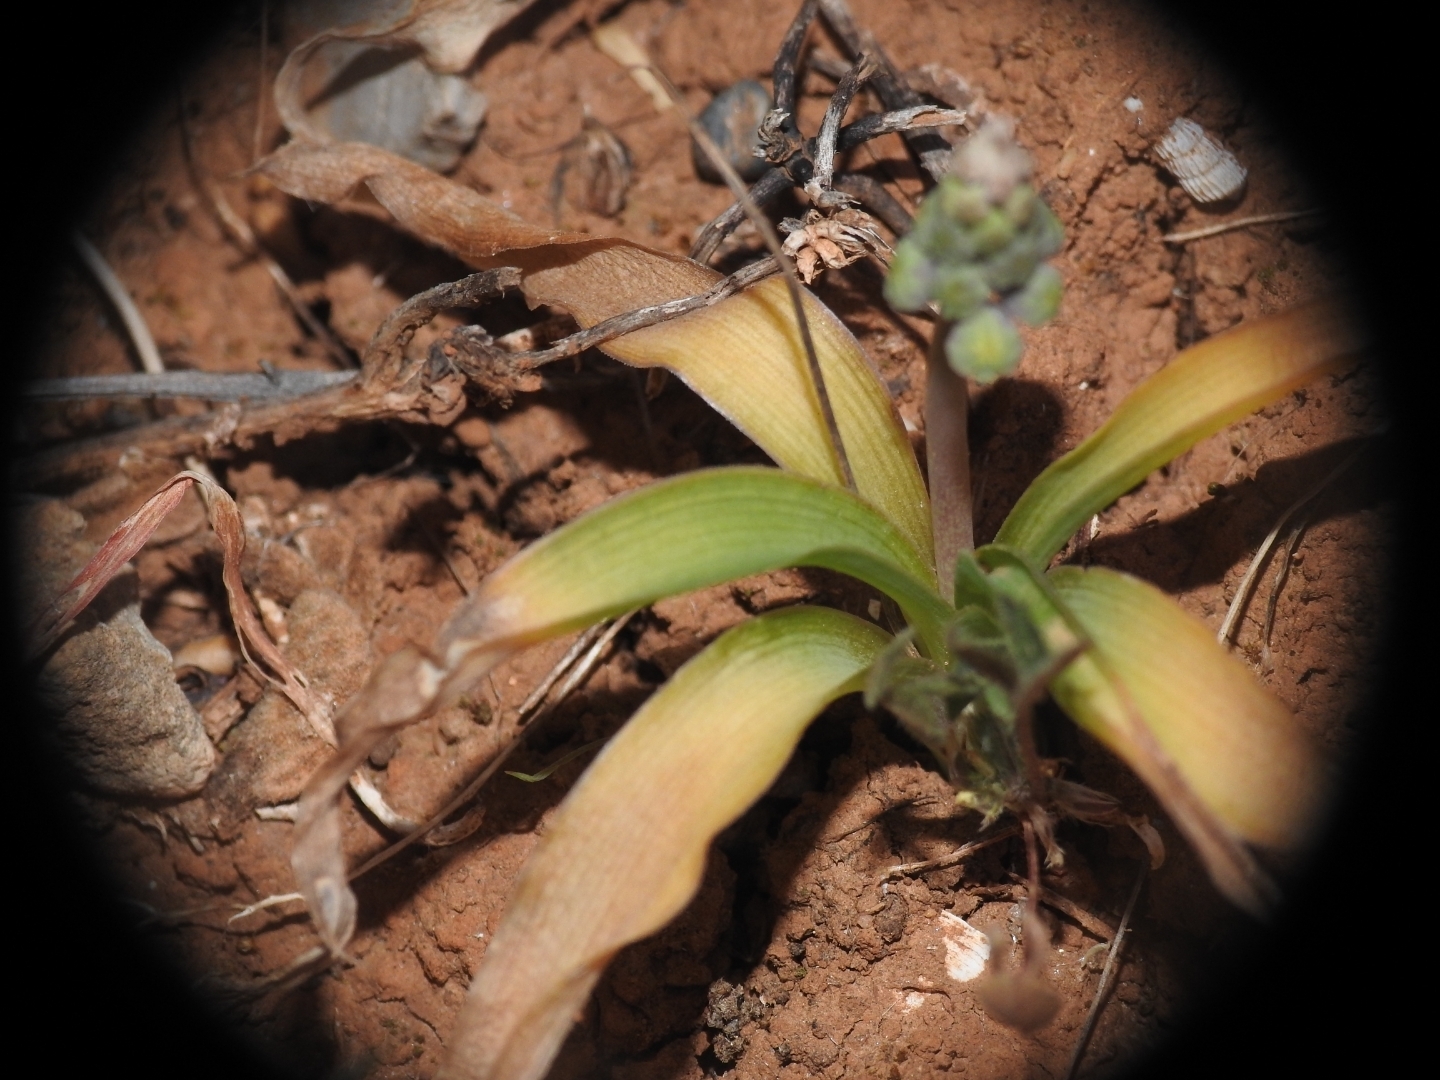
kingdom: Plantae
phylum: Tracheophyta
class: Liliopsida
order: Asparagales
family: Asparagaceae
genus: Muscari
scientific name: Muscari spreitzenhoferi
